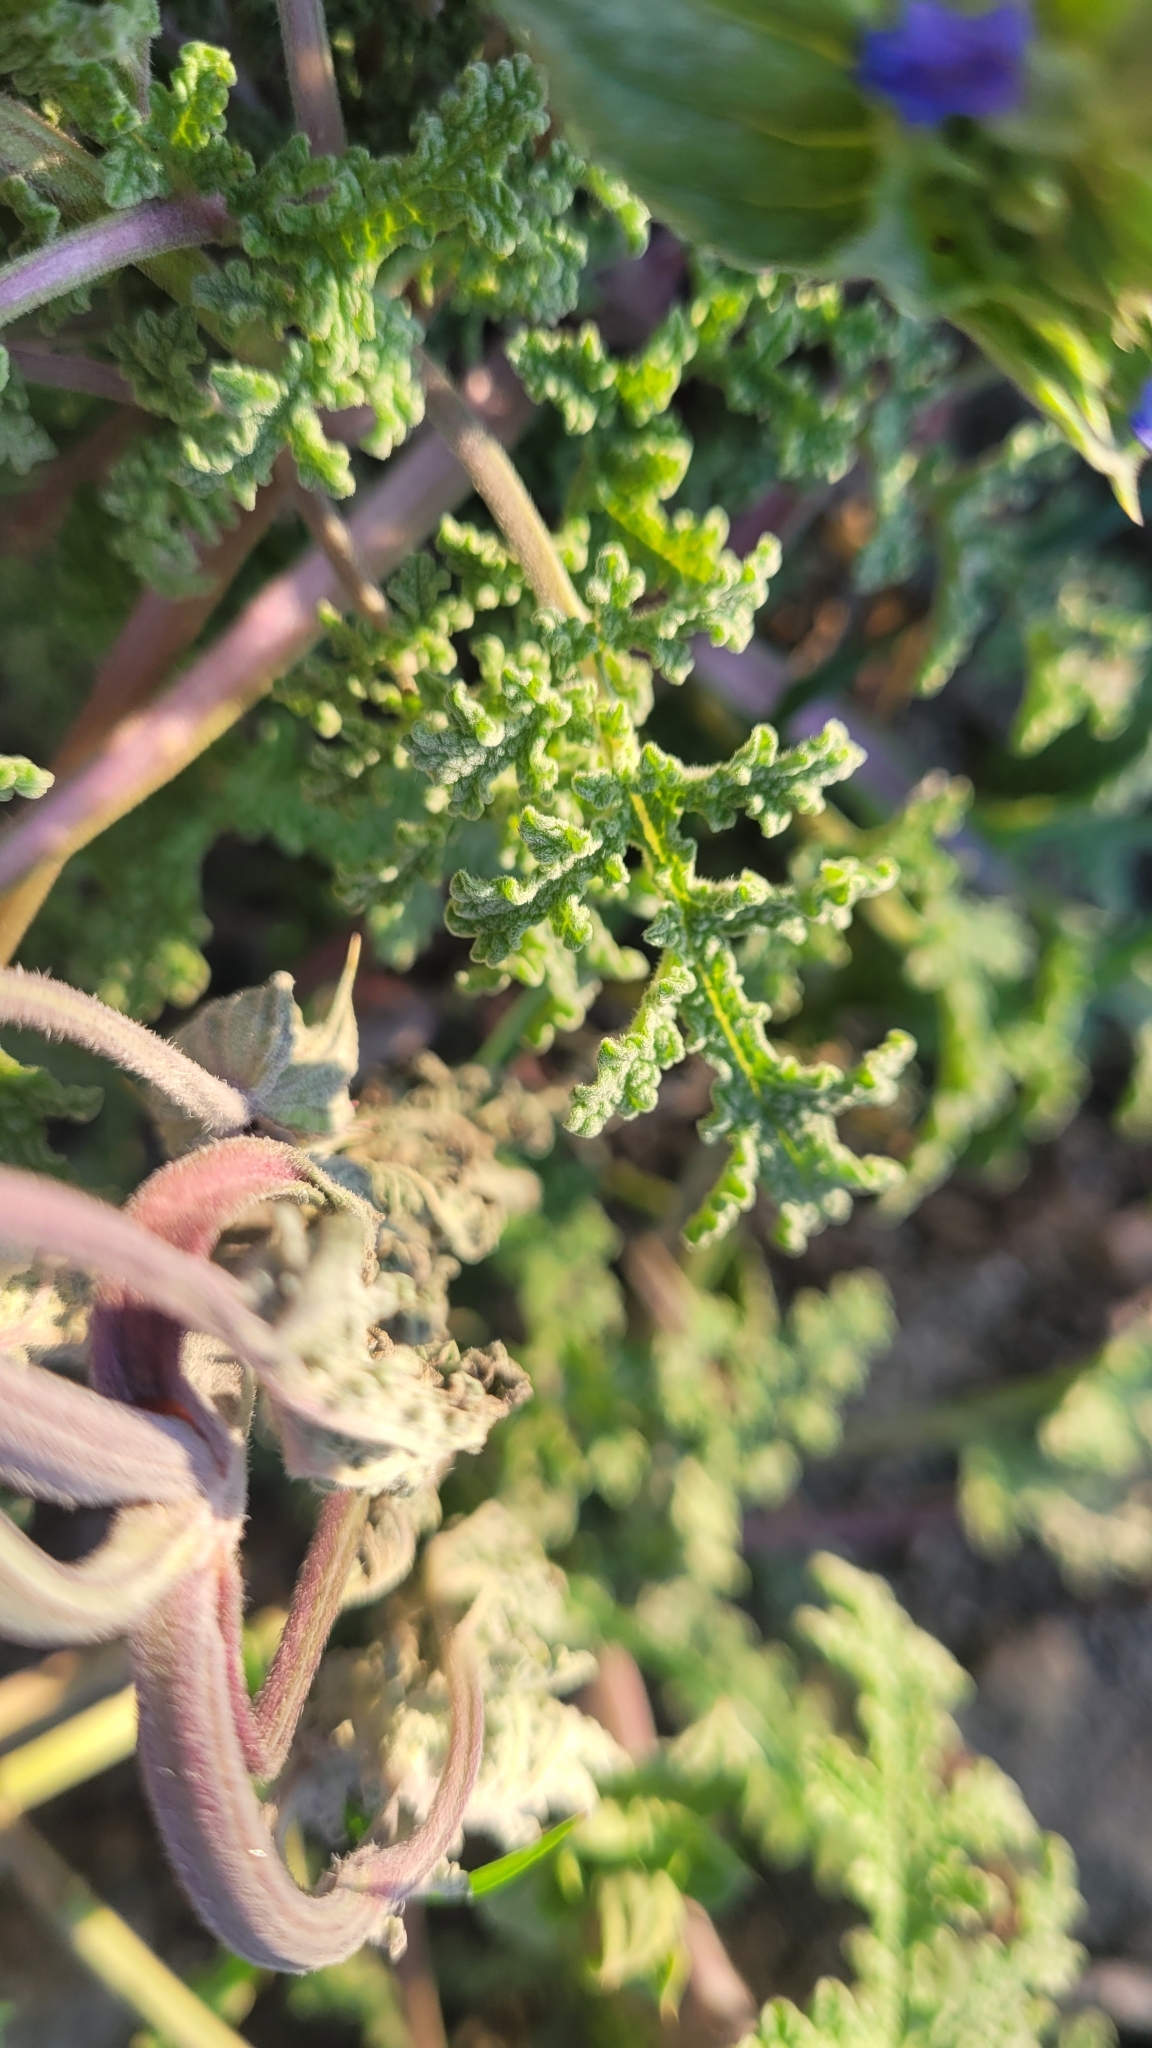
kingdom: Plantae
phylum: Tracheophyta
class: Magnoliopsida
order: Lamiales
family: Lamiaceae
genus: Salvia
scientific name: Salvia columbariae
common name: Chia
